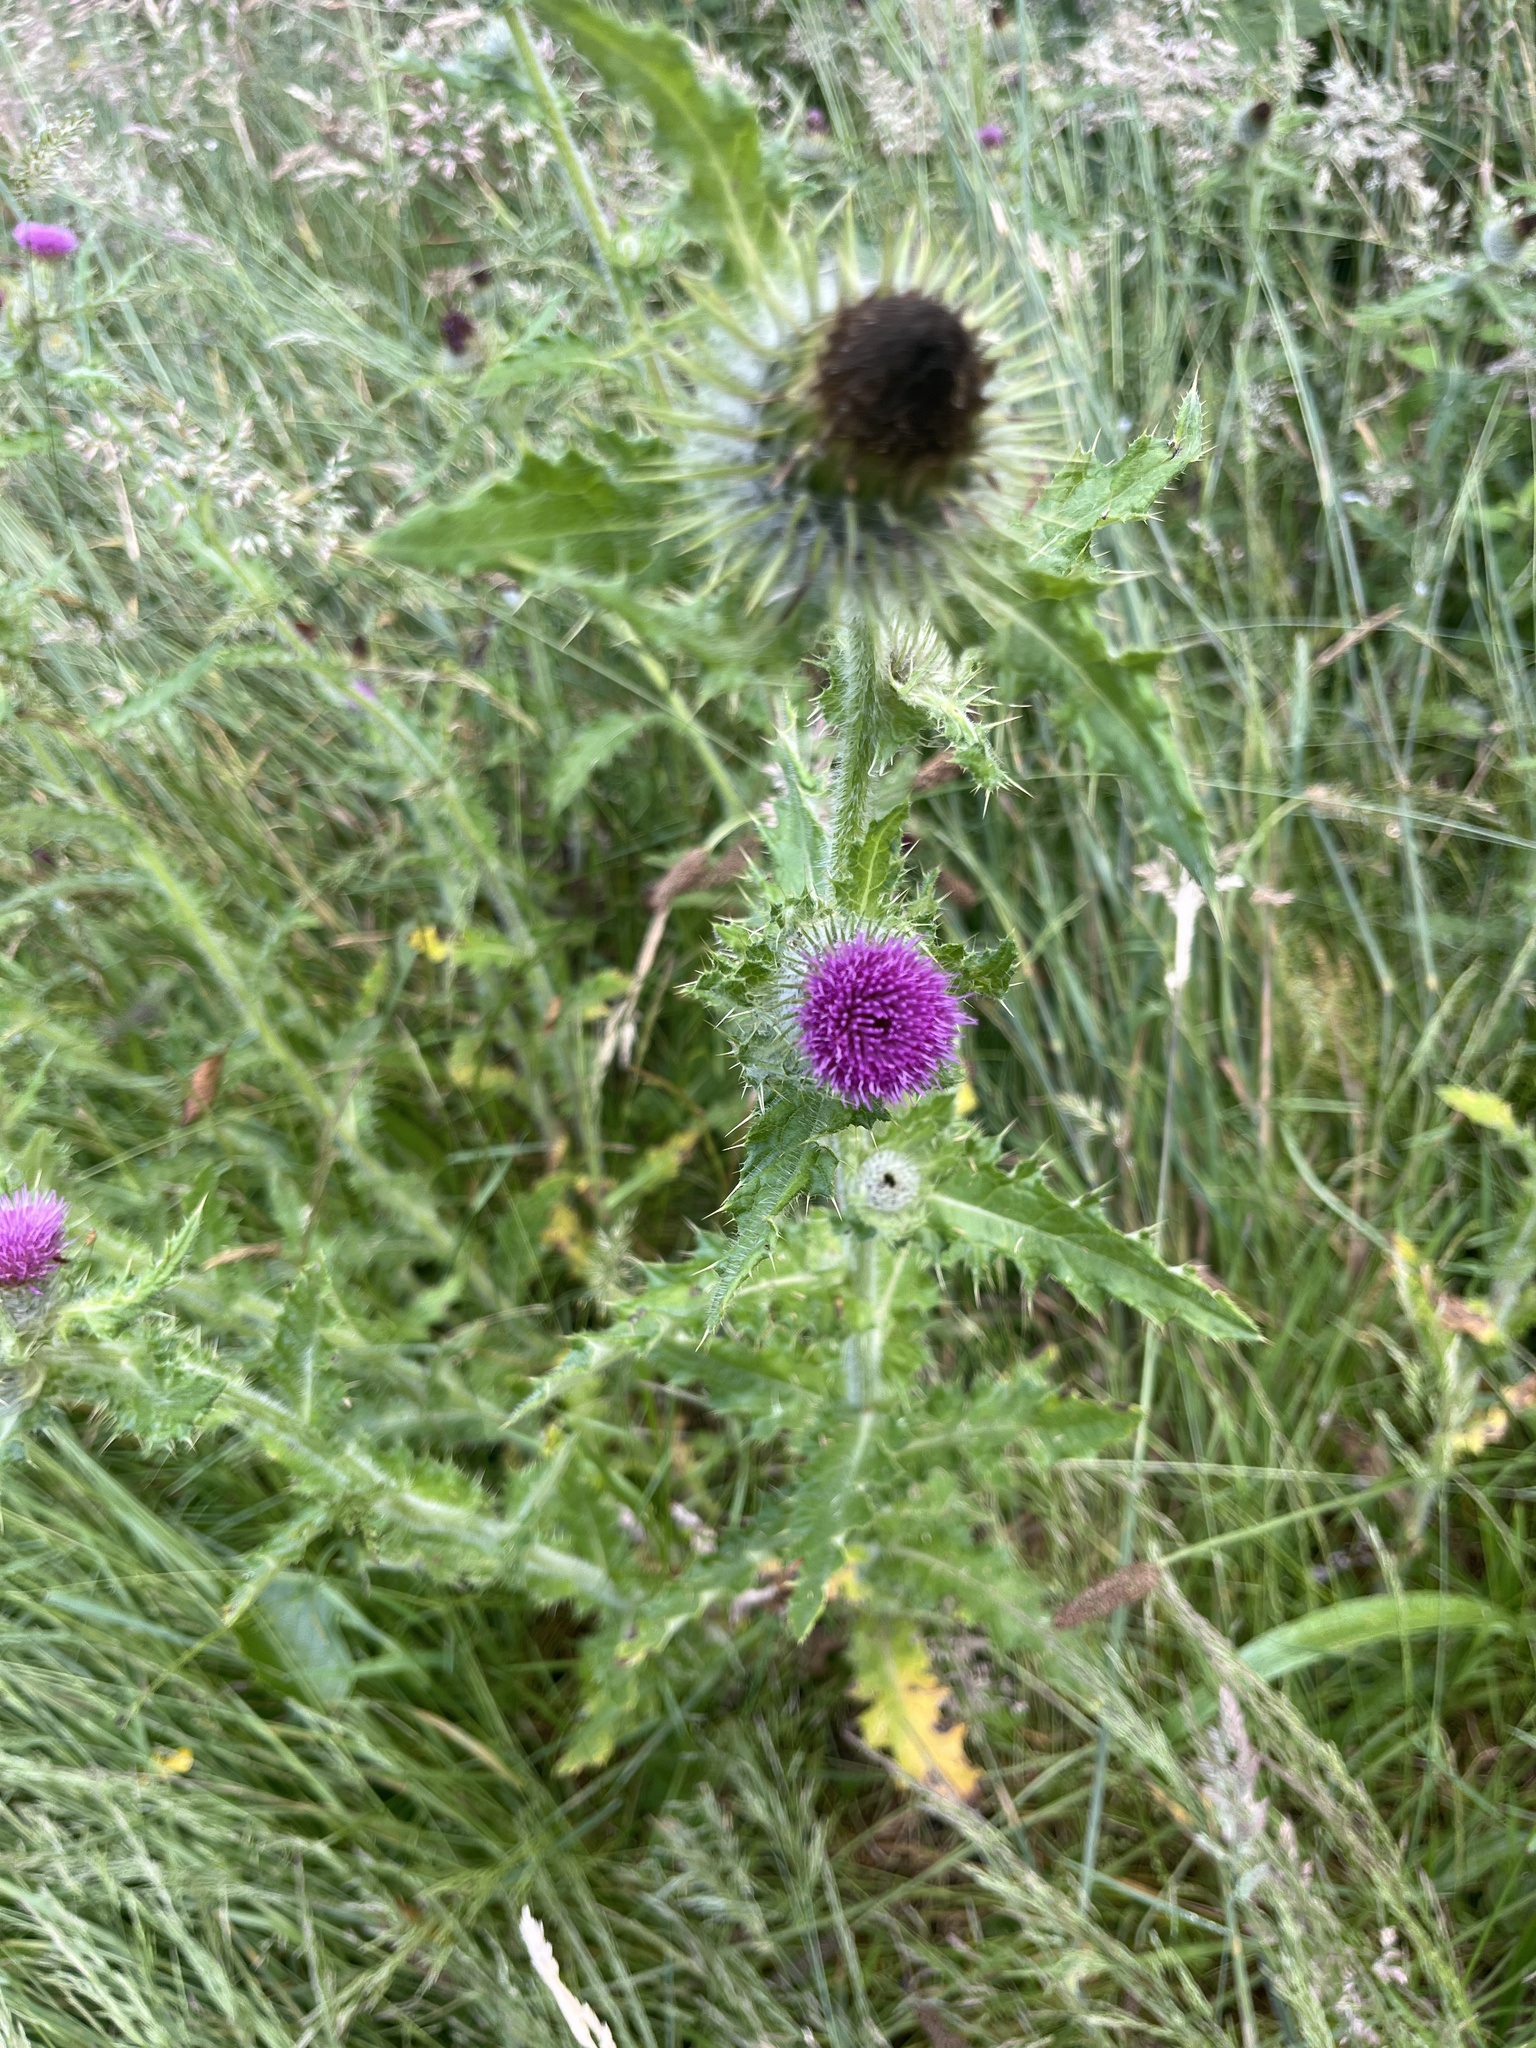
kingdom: Plantae
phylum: Tracheophyta
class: Magnoliopsida
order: Asterales
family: Asteraceae
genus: Cirsium
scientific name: Cirsium brevistylum
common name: Indian thistle
